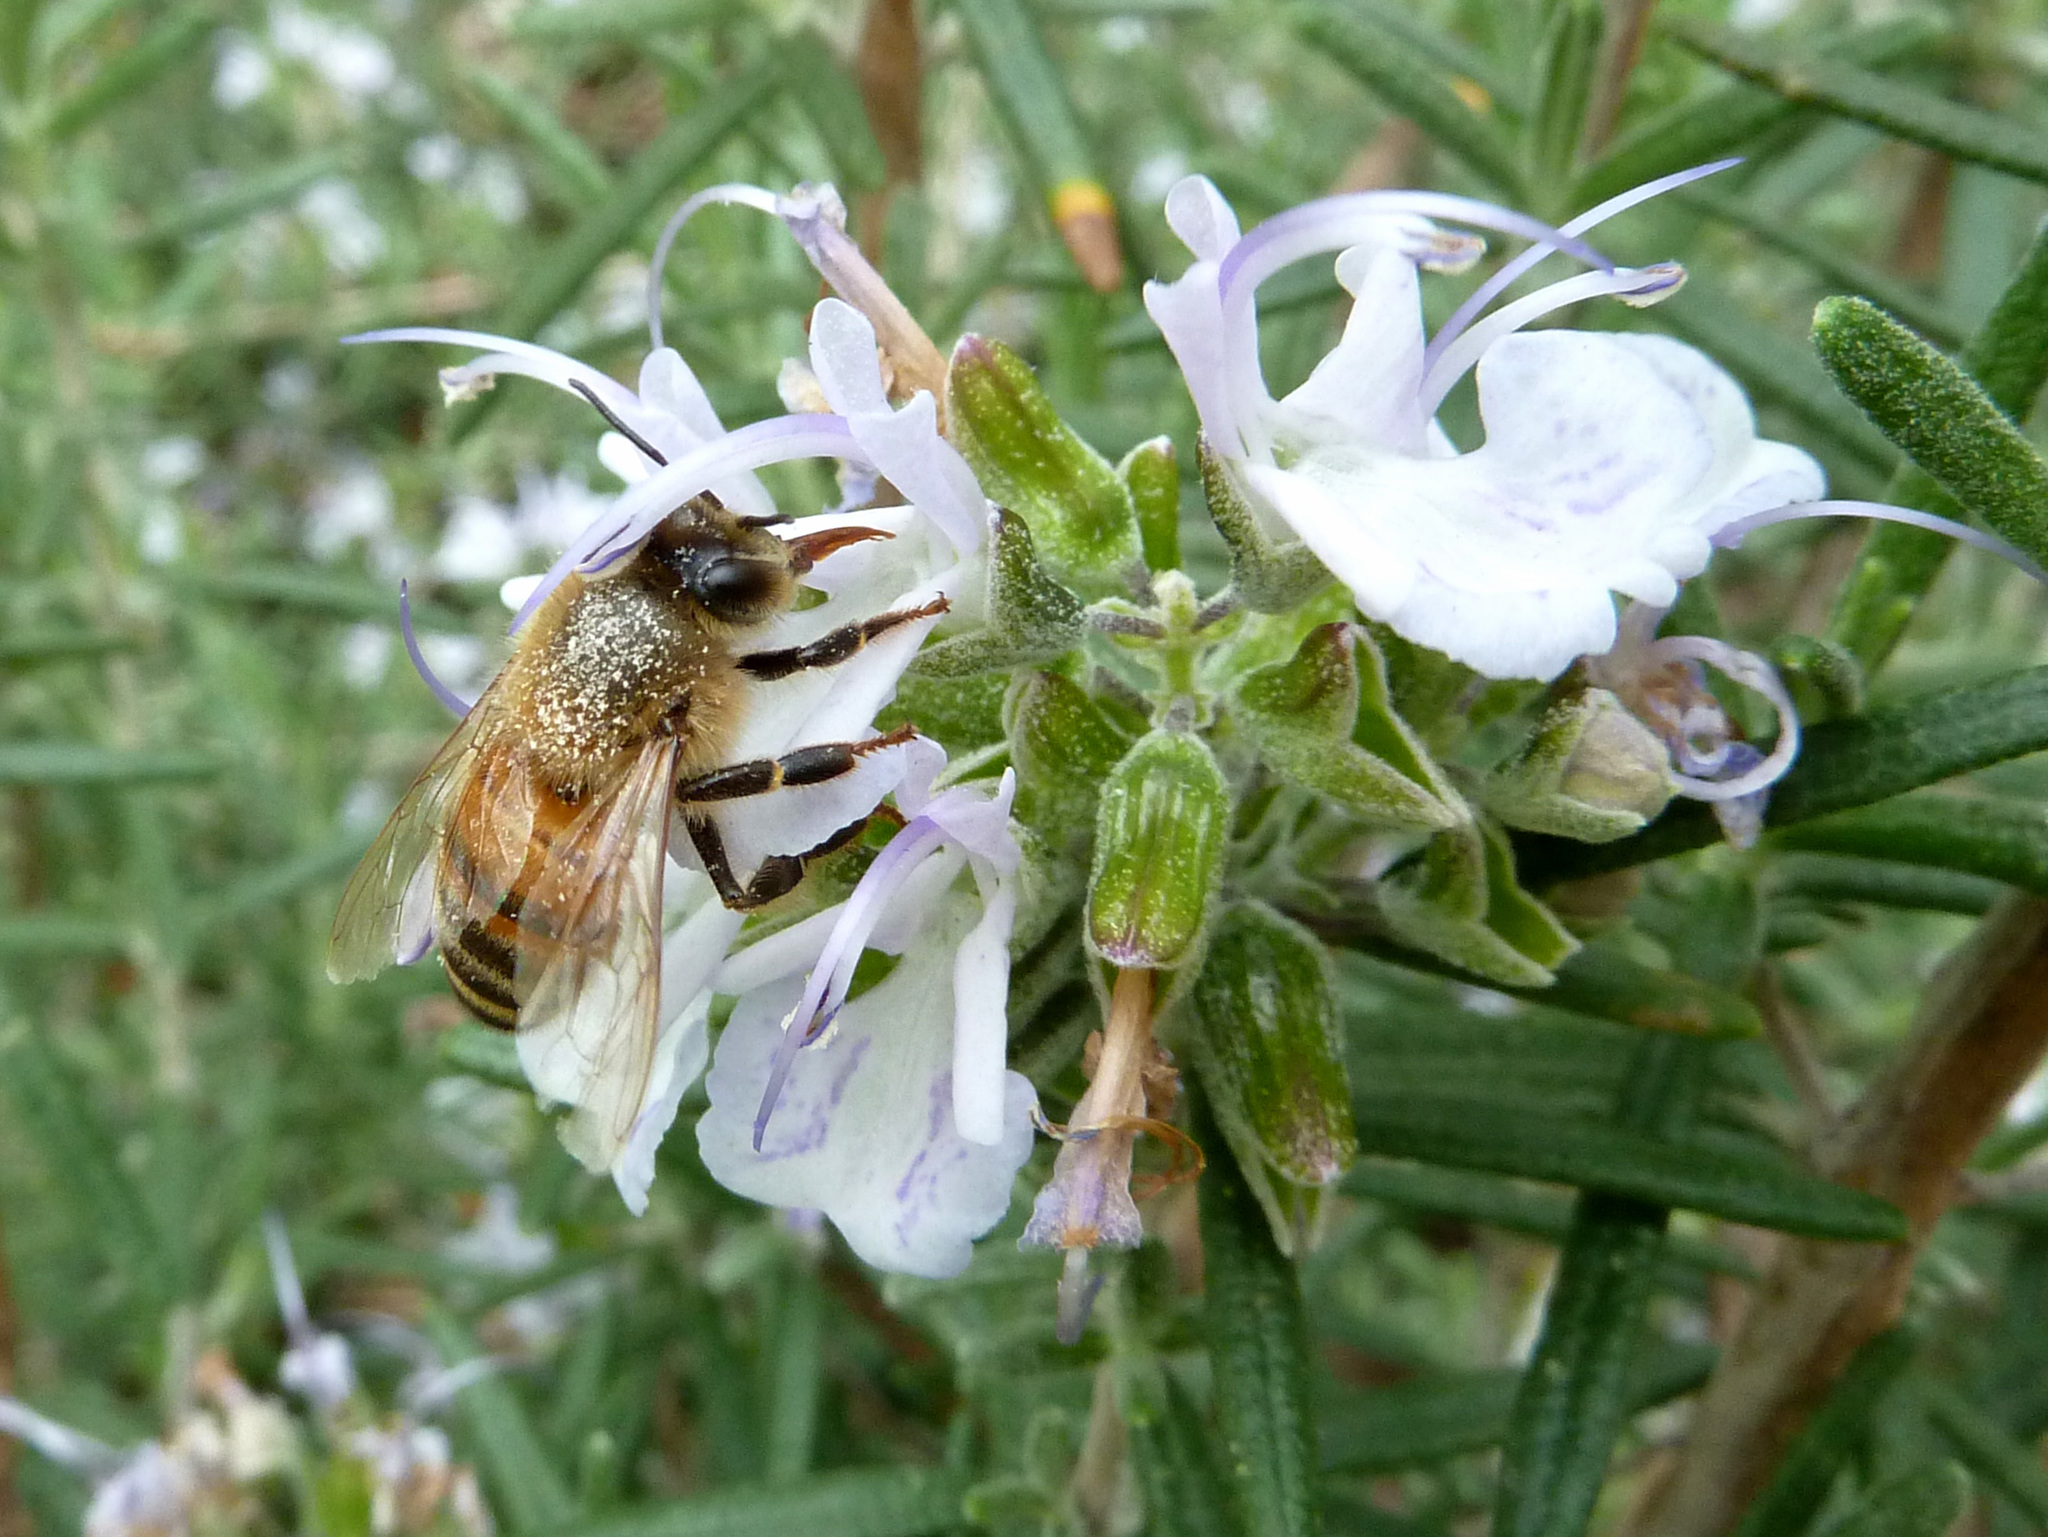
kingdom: Animalia
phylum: Arthropoda
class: Insecta
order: Hymenoptera
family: Apidae
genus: Apis
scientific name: Apis mellifera
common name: Honey bee
